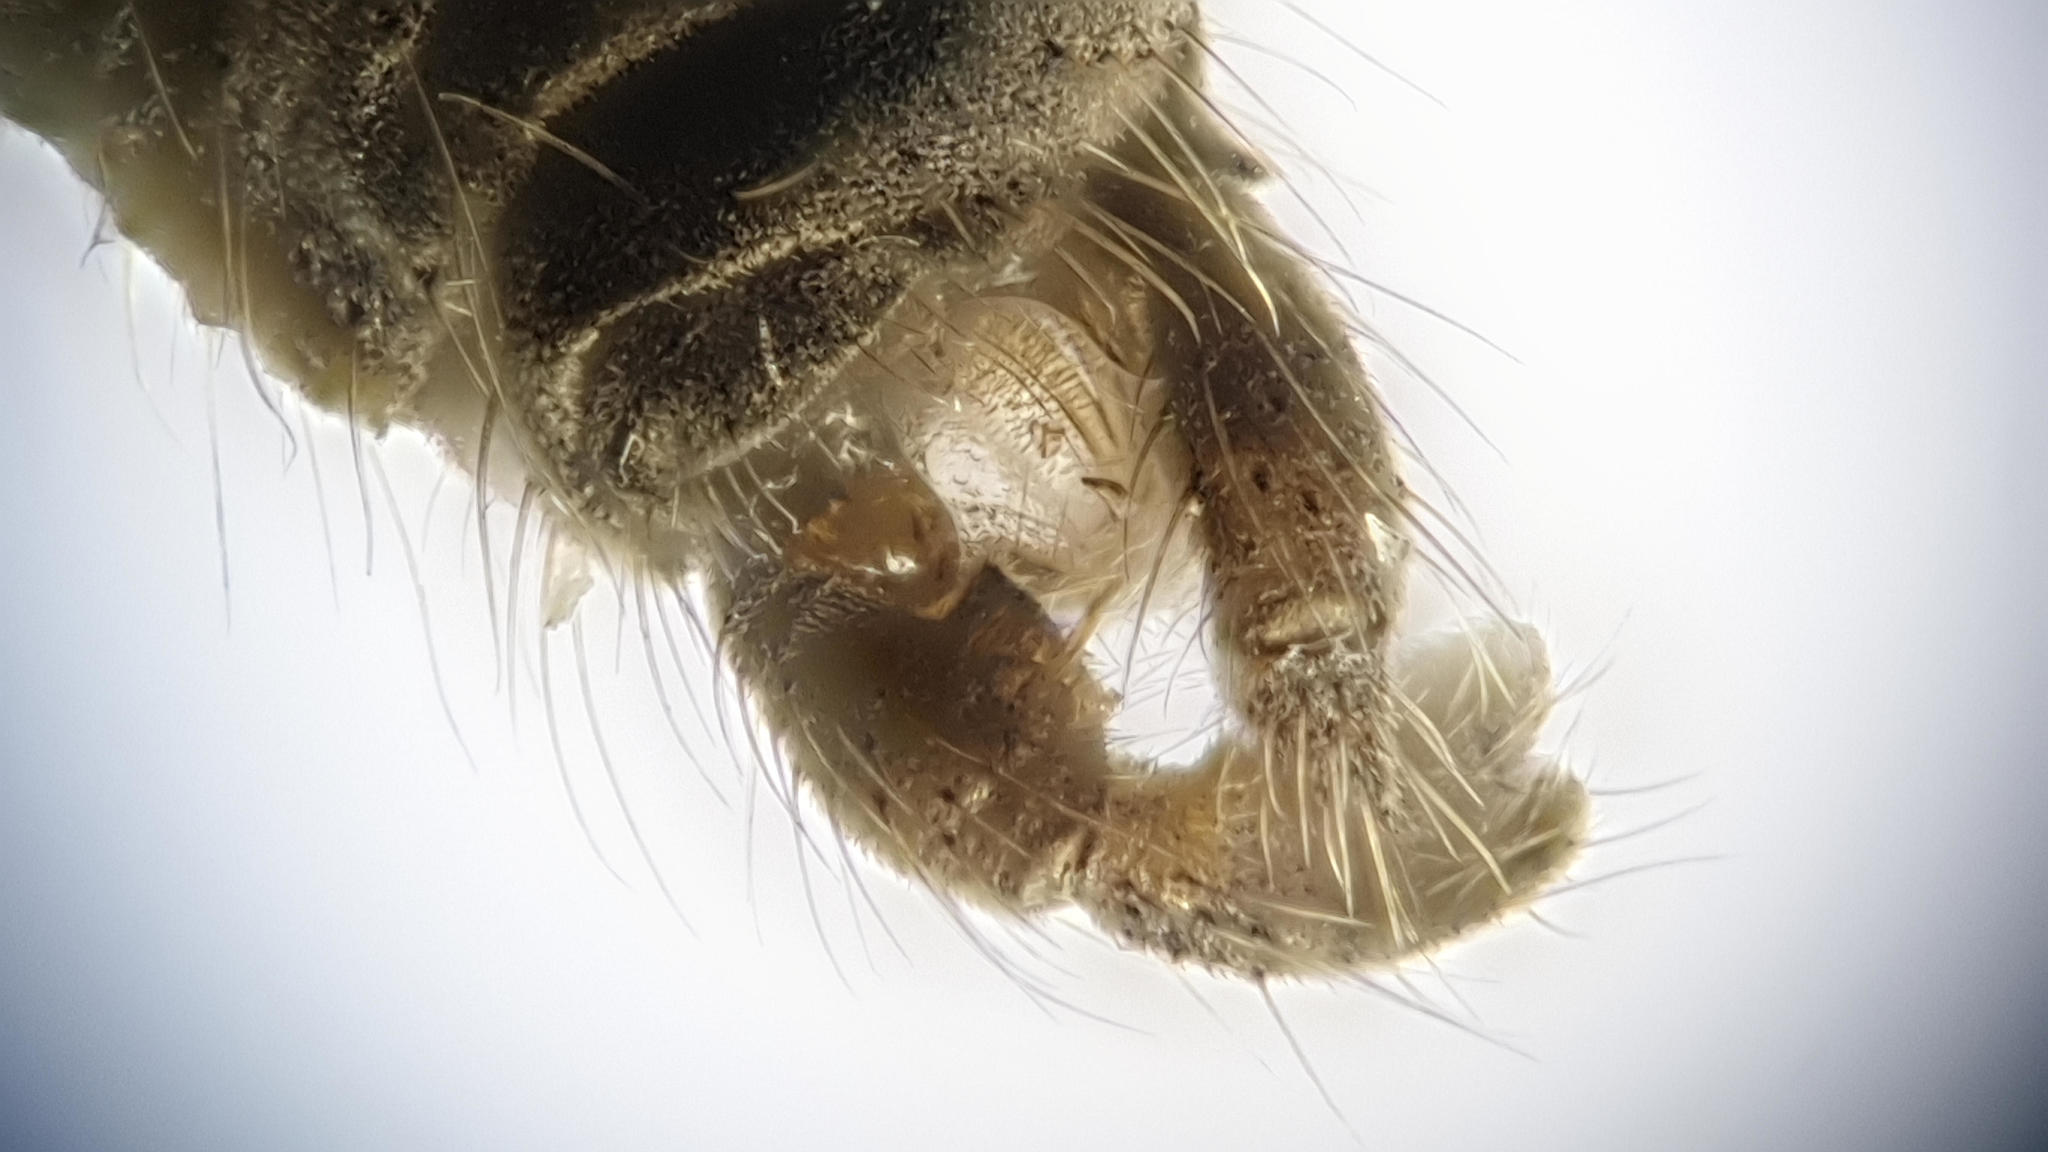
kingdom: Animalia
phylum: Arthropoda
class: Insecta
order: Diptera
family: Trichoceridae
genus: Trichocera
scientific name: Trichocera regelationis
